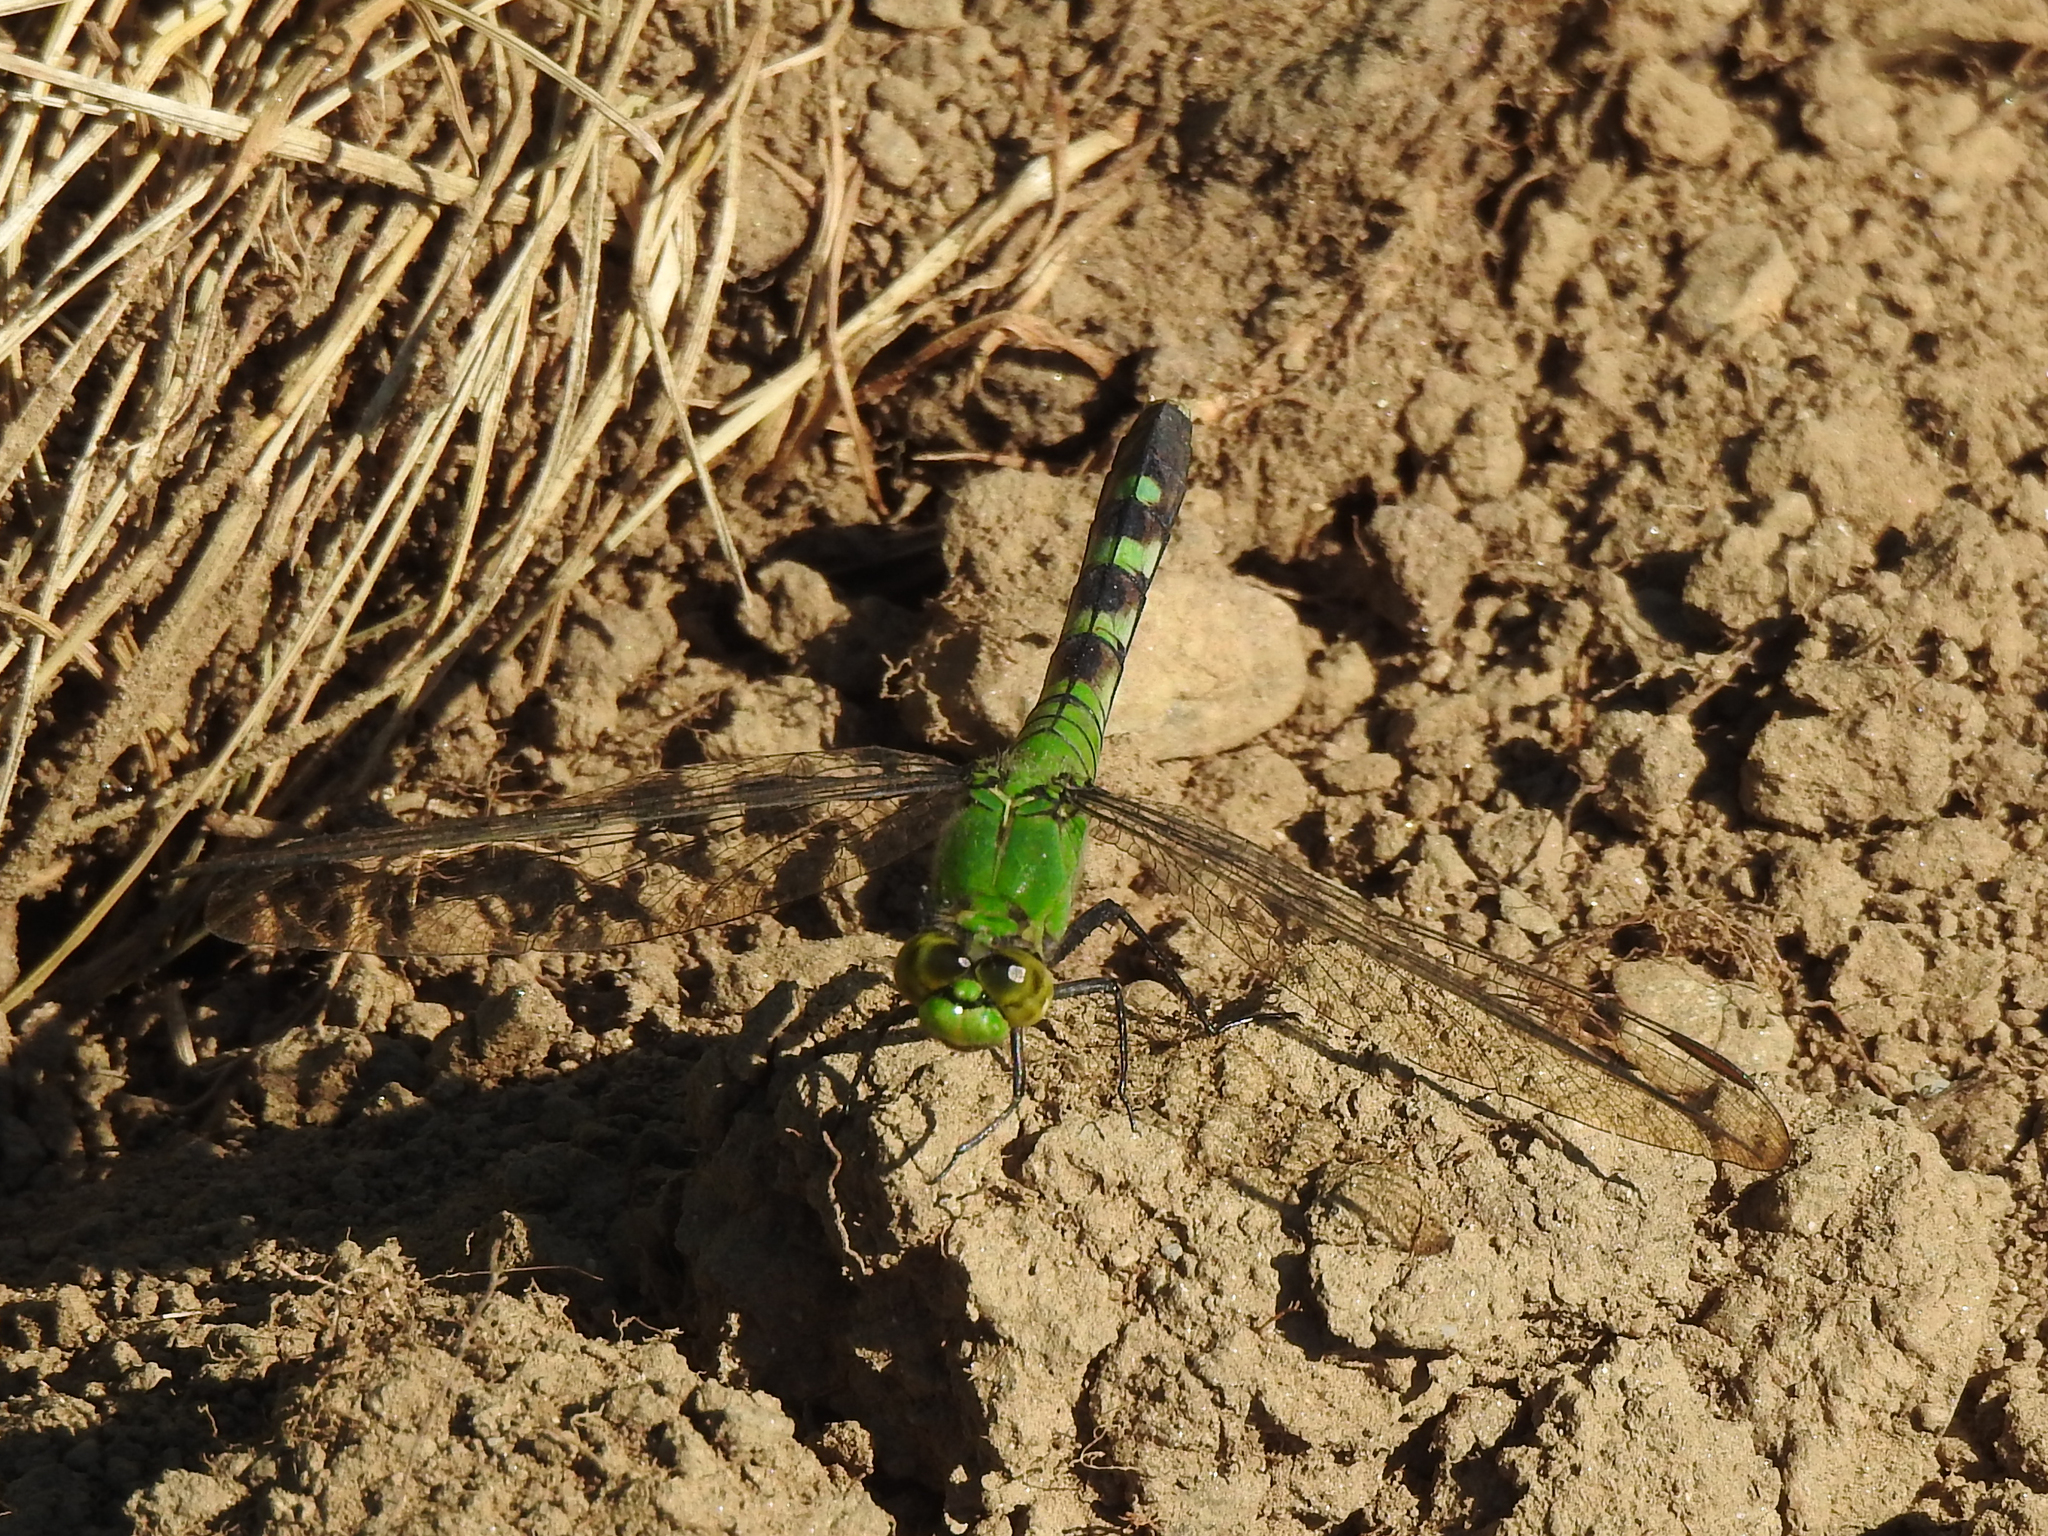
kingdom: Animalia
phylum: Arthropoda
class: Insecta
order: Odonata
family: Libellulidae
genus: Erythemis
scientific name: Erythemis simplicicollis
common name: Eastern pondhawk
